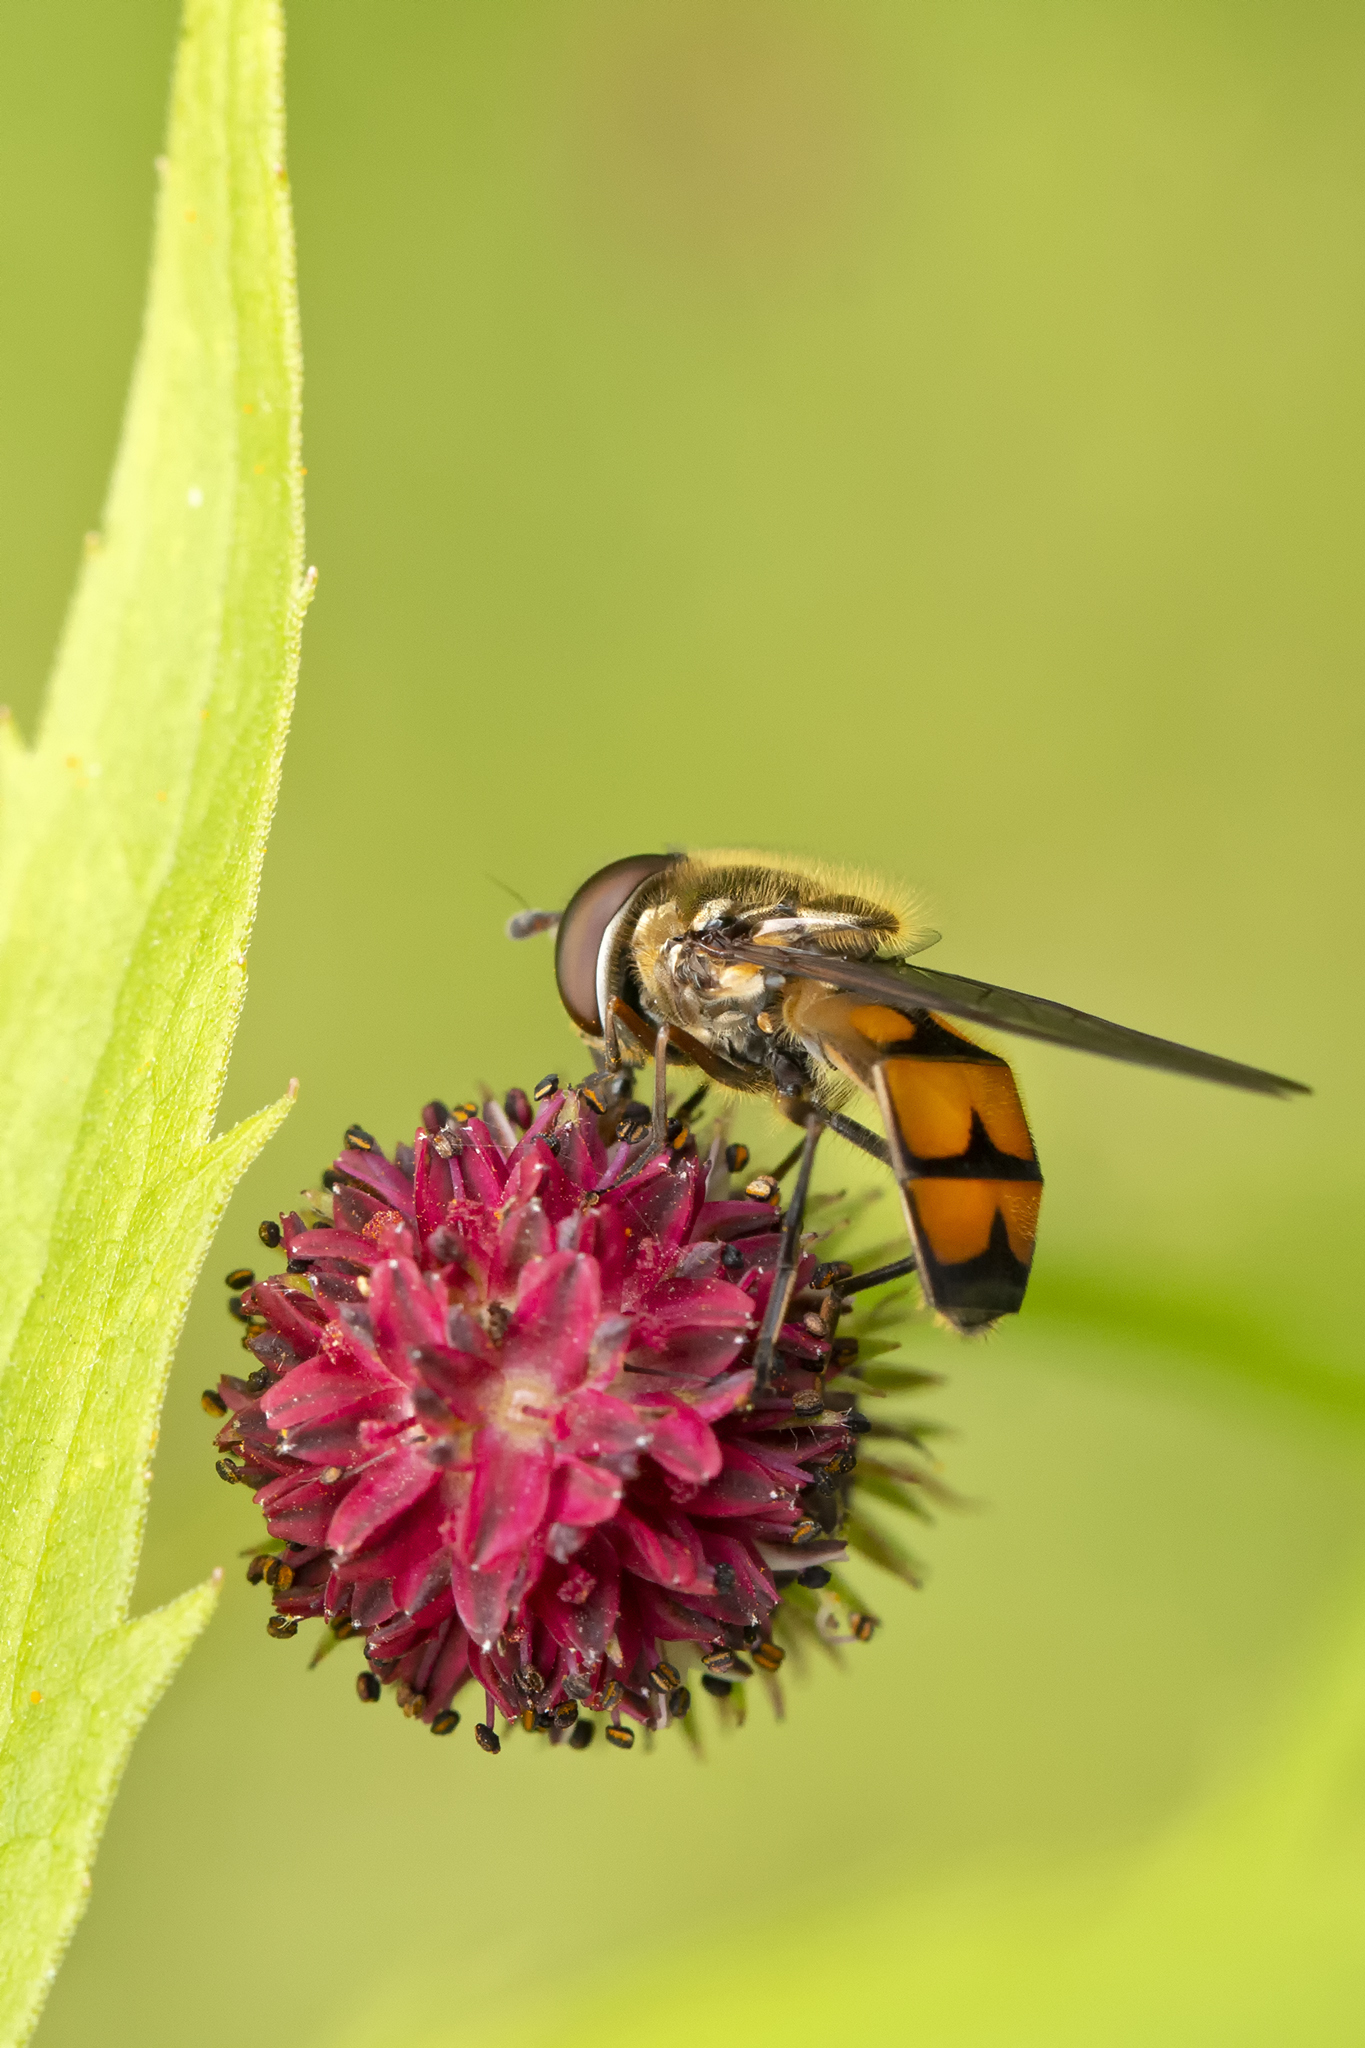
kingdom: Animalia
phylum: Arthropoda
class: Insecta
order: Diptera
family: Syrphidae
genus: Xanthandrus
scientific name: Xanthandrus comtus
